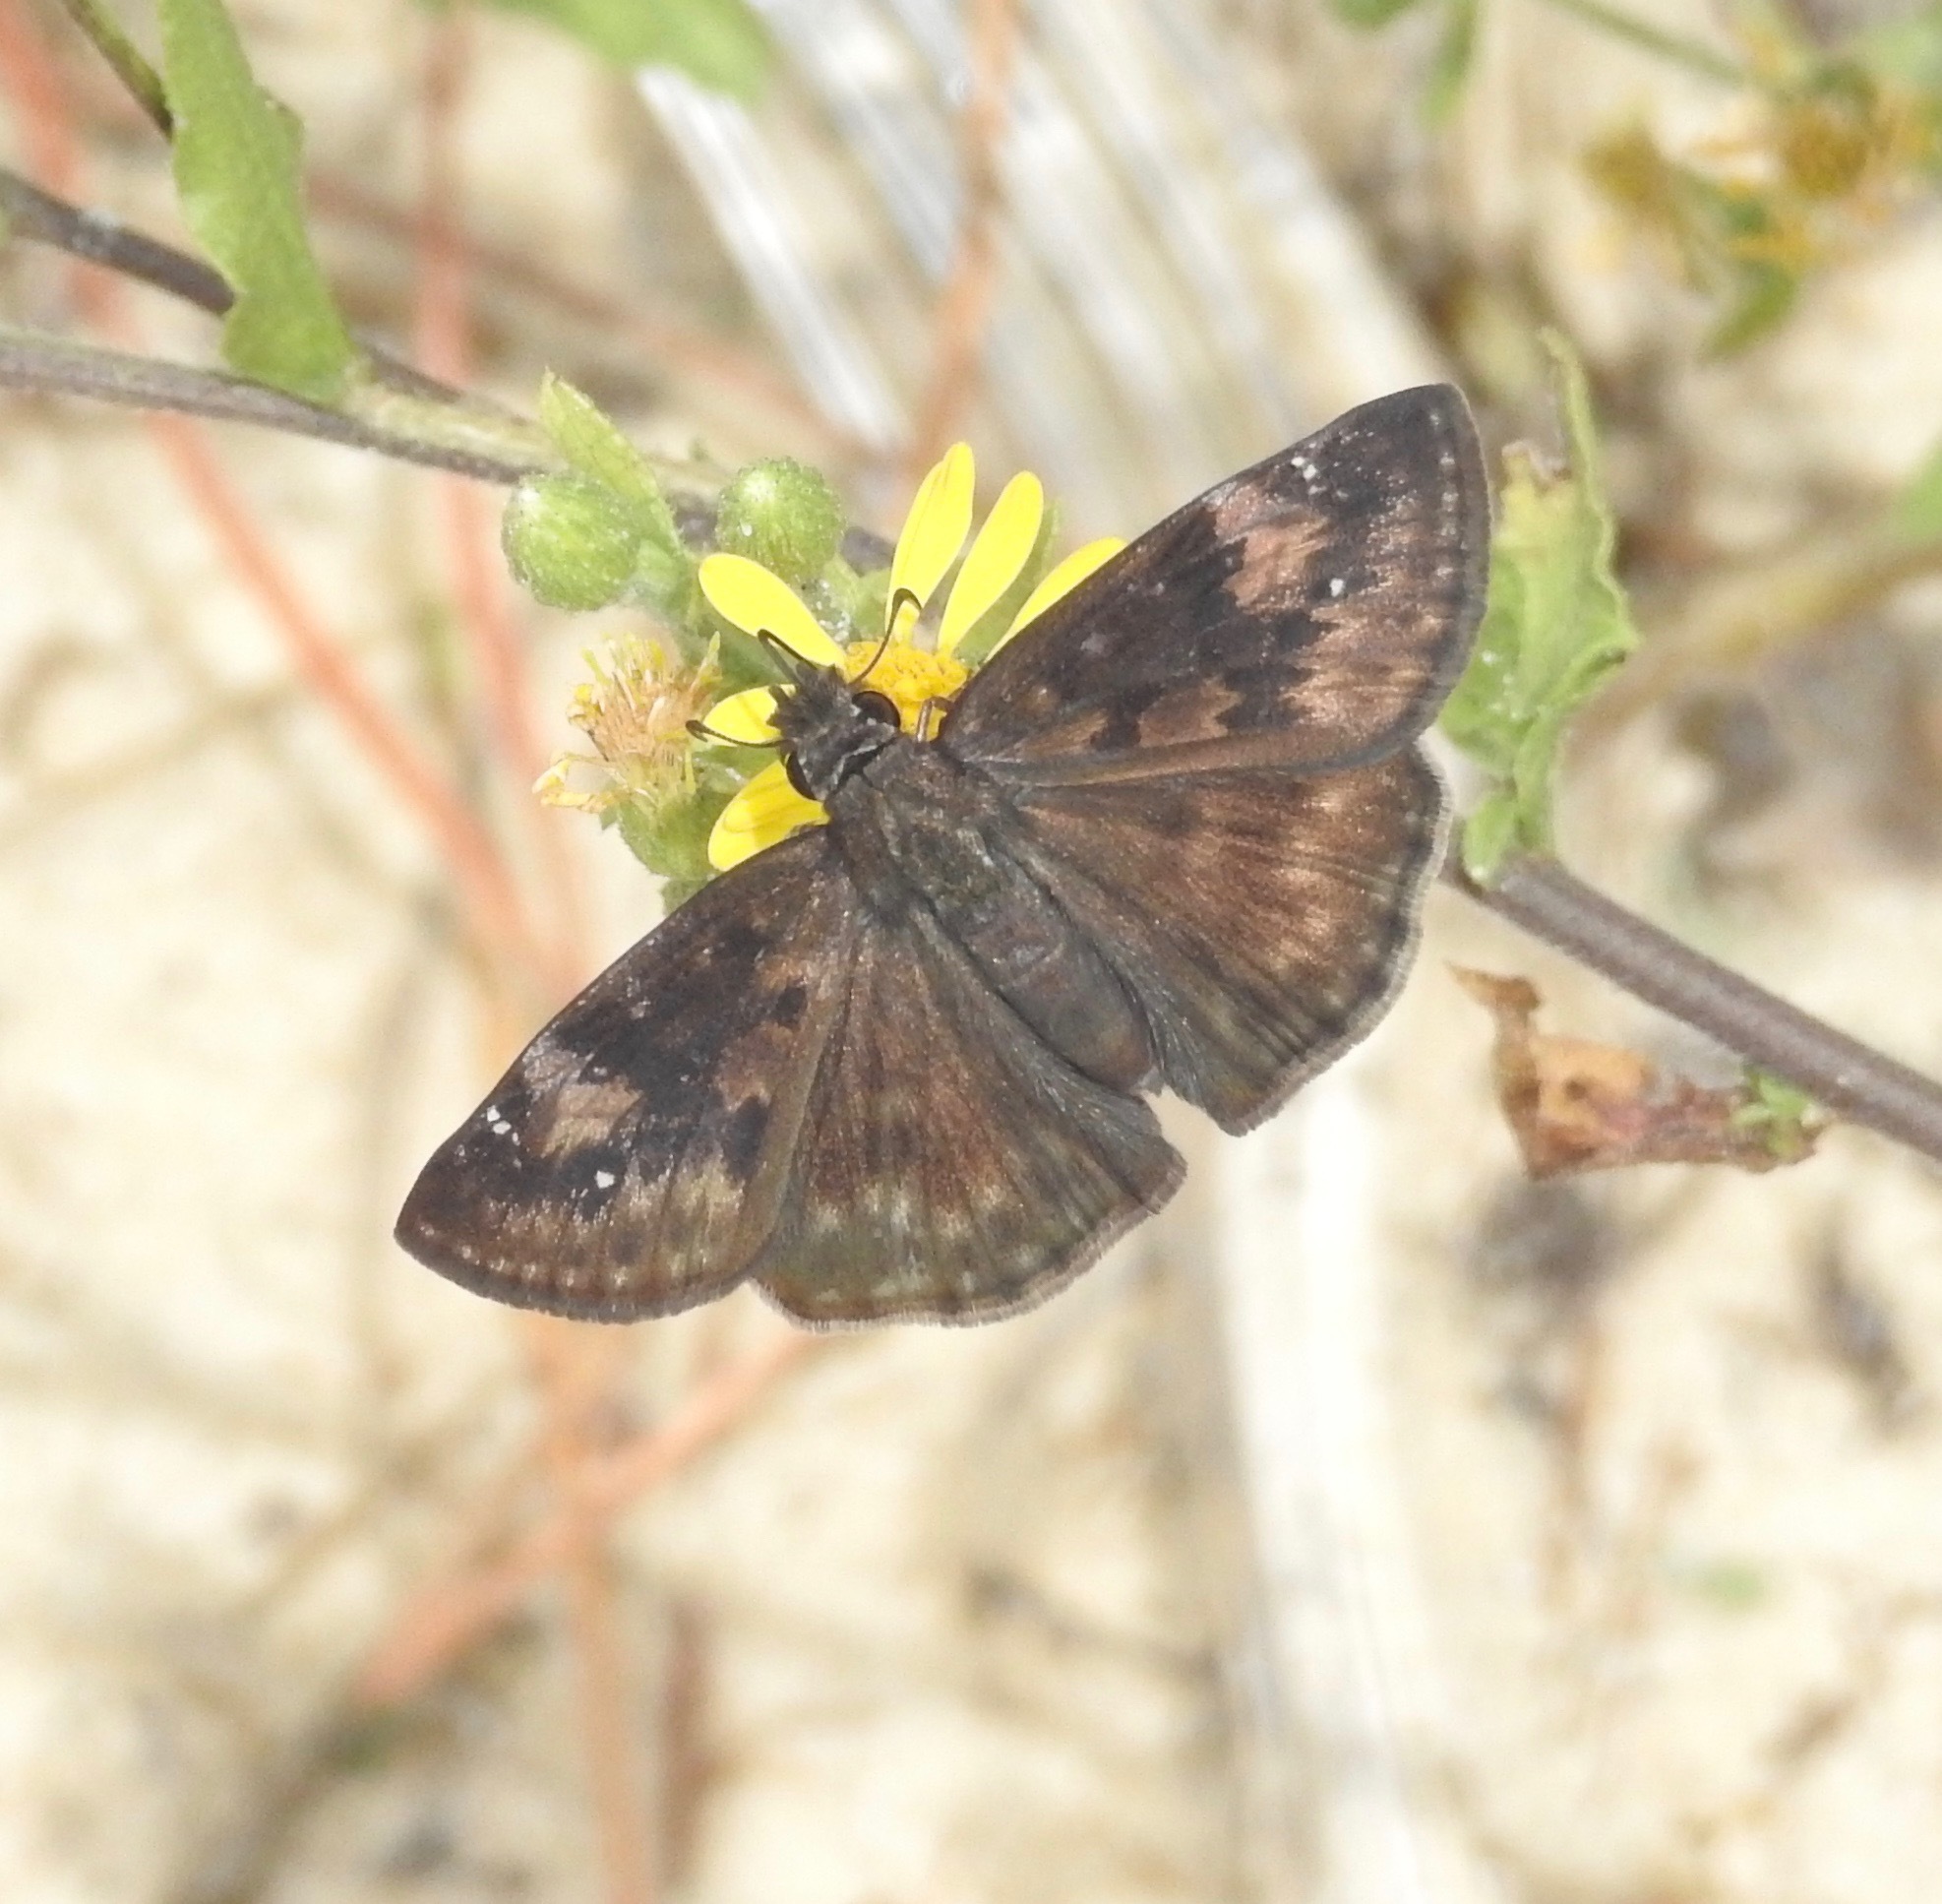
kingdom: Animalia
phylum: Arthropoda
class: Insecta
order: Lepidoptera
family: Hesperiidae
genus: Erynnis
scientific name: Erynnis zarucco
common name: Zarucco duskywing
